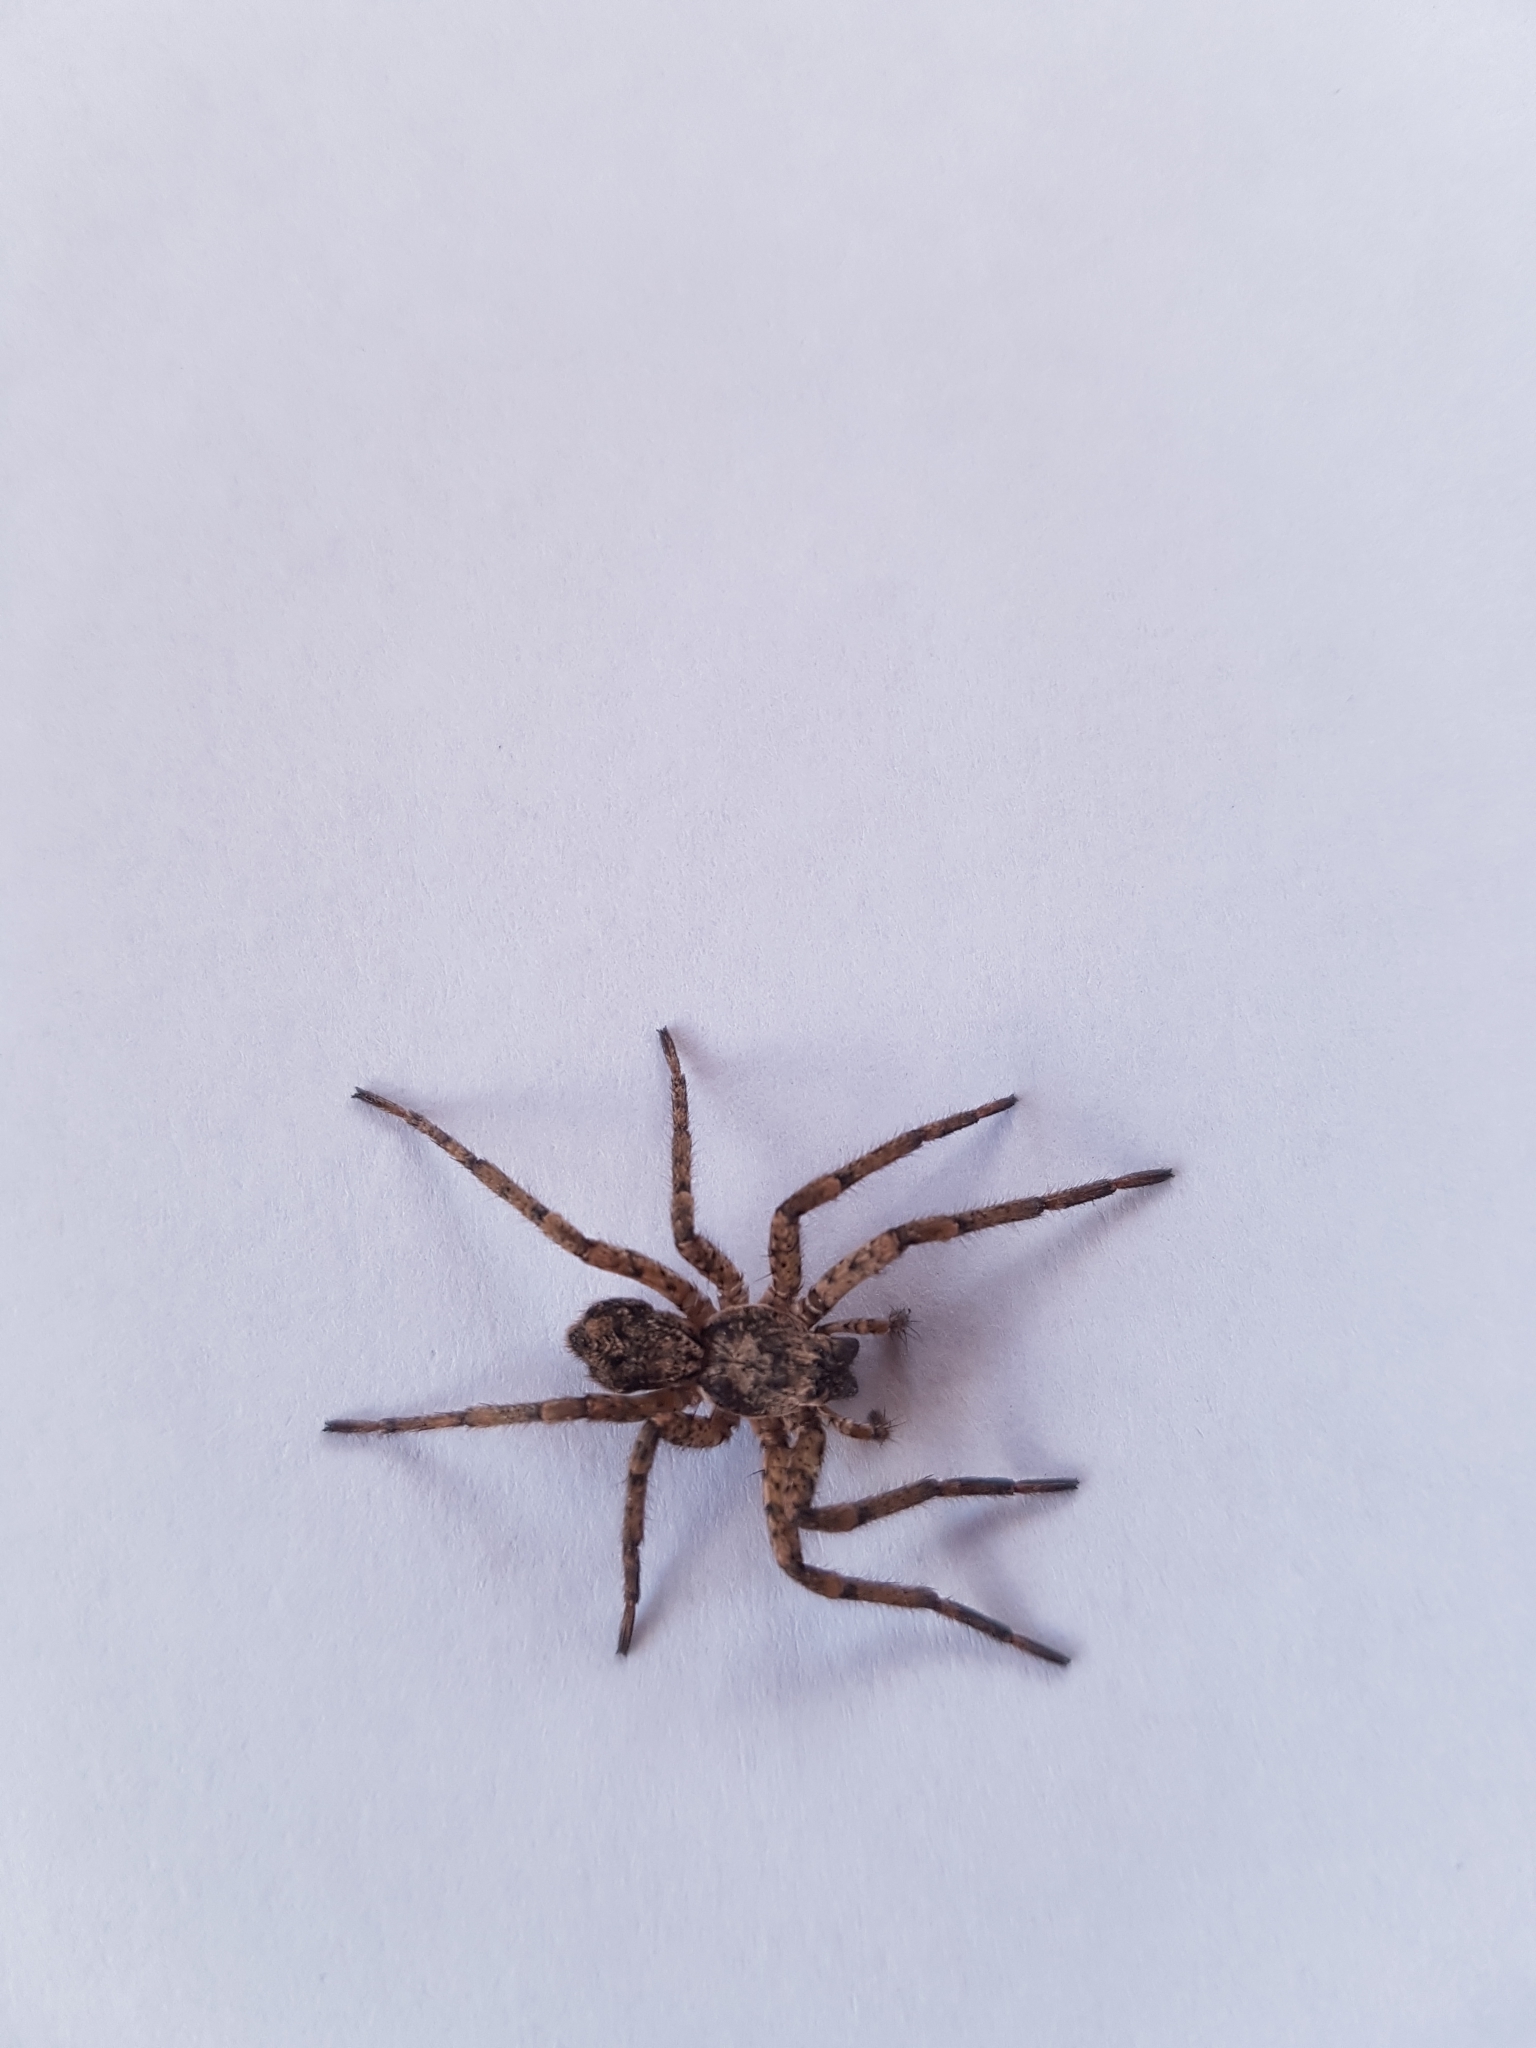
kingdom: Animalia
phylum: Arthropoda
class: Arachnida
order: Araneae
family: Anyphaenidae
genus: Tomopisthes
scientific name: Tomopisthes horrendus
